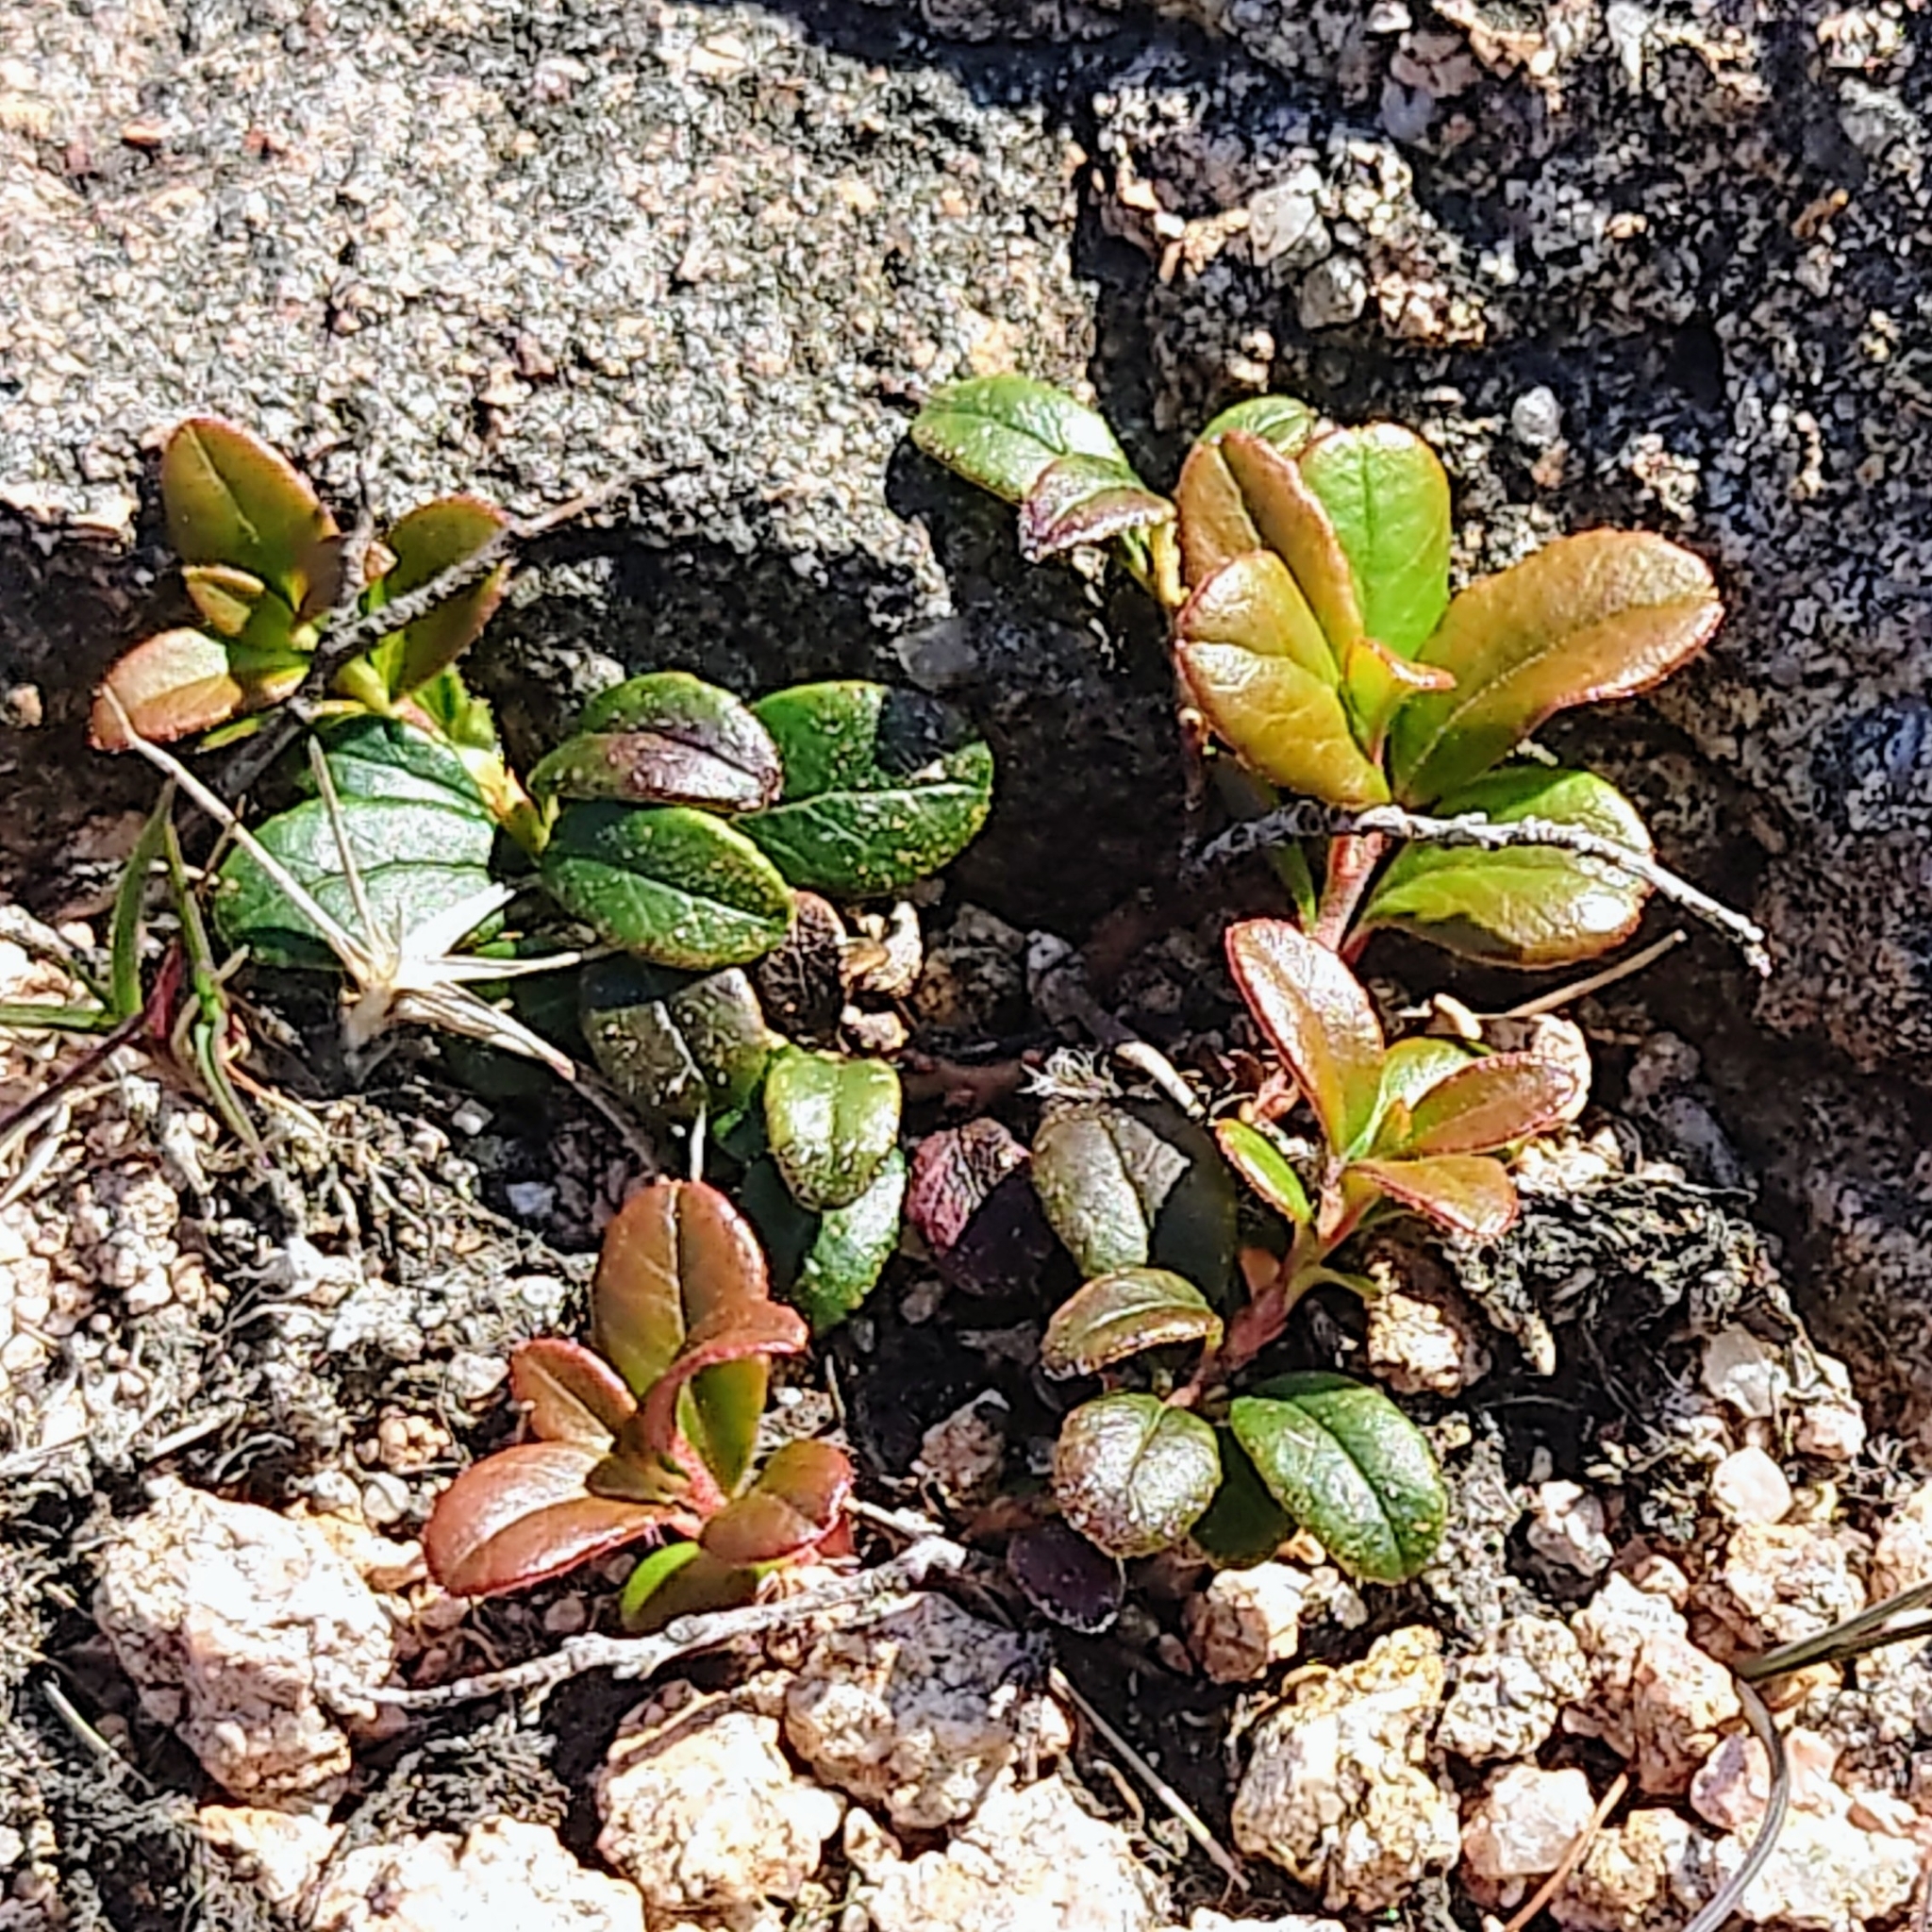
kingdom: Plantae
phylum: Tracheophyta
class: Magnoliopsida
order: Ericales
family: Ericaceae
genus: Vaccinium
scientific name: Vaccinium vitis-idaea
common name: Cowberry
